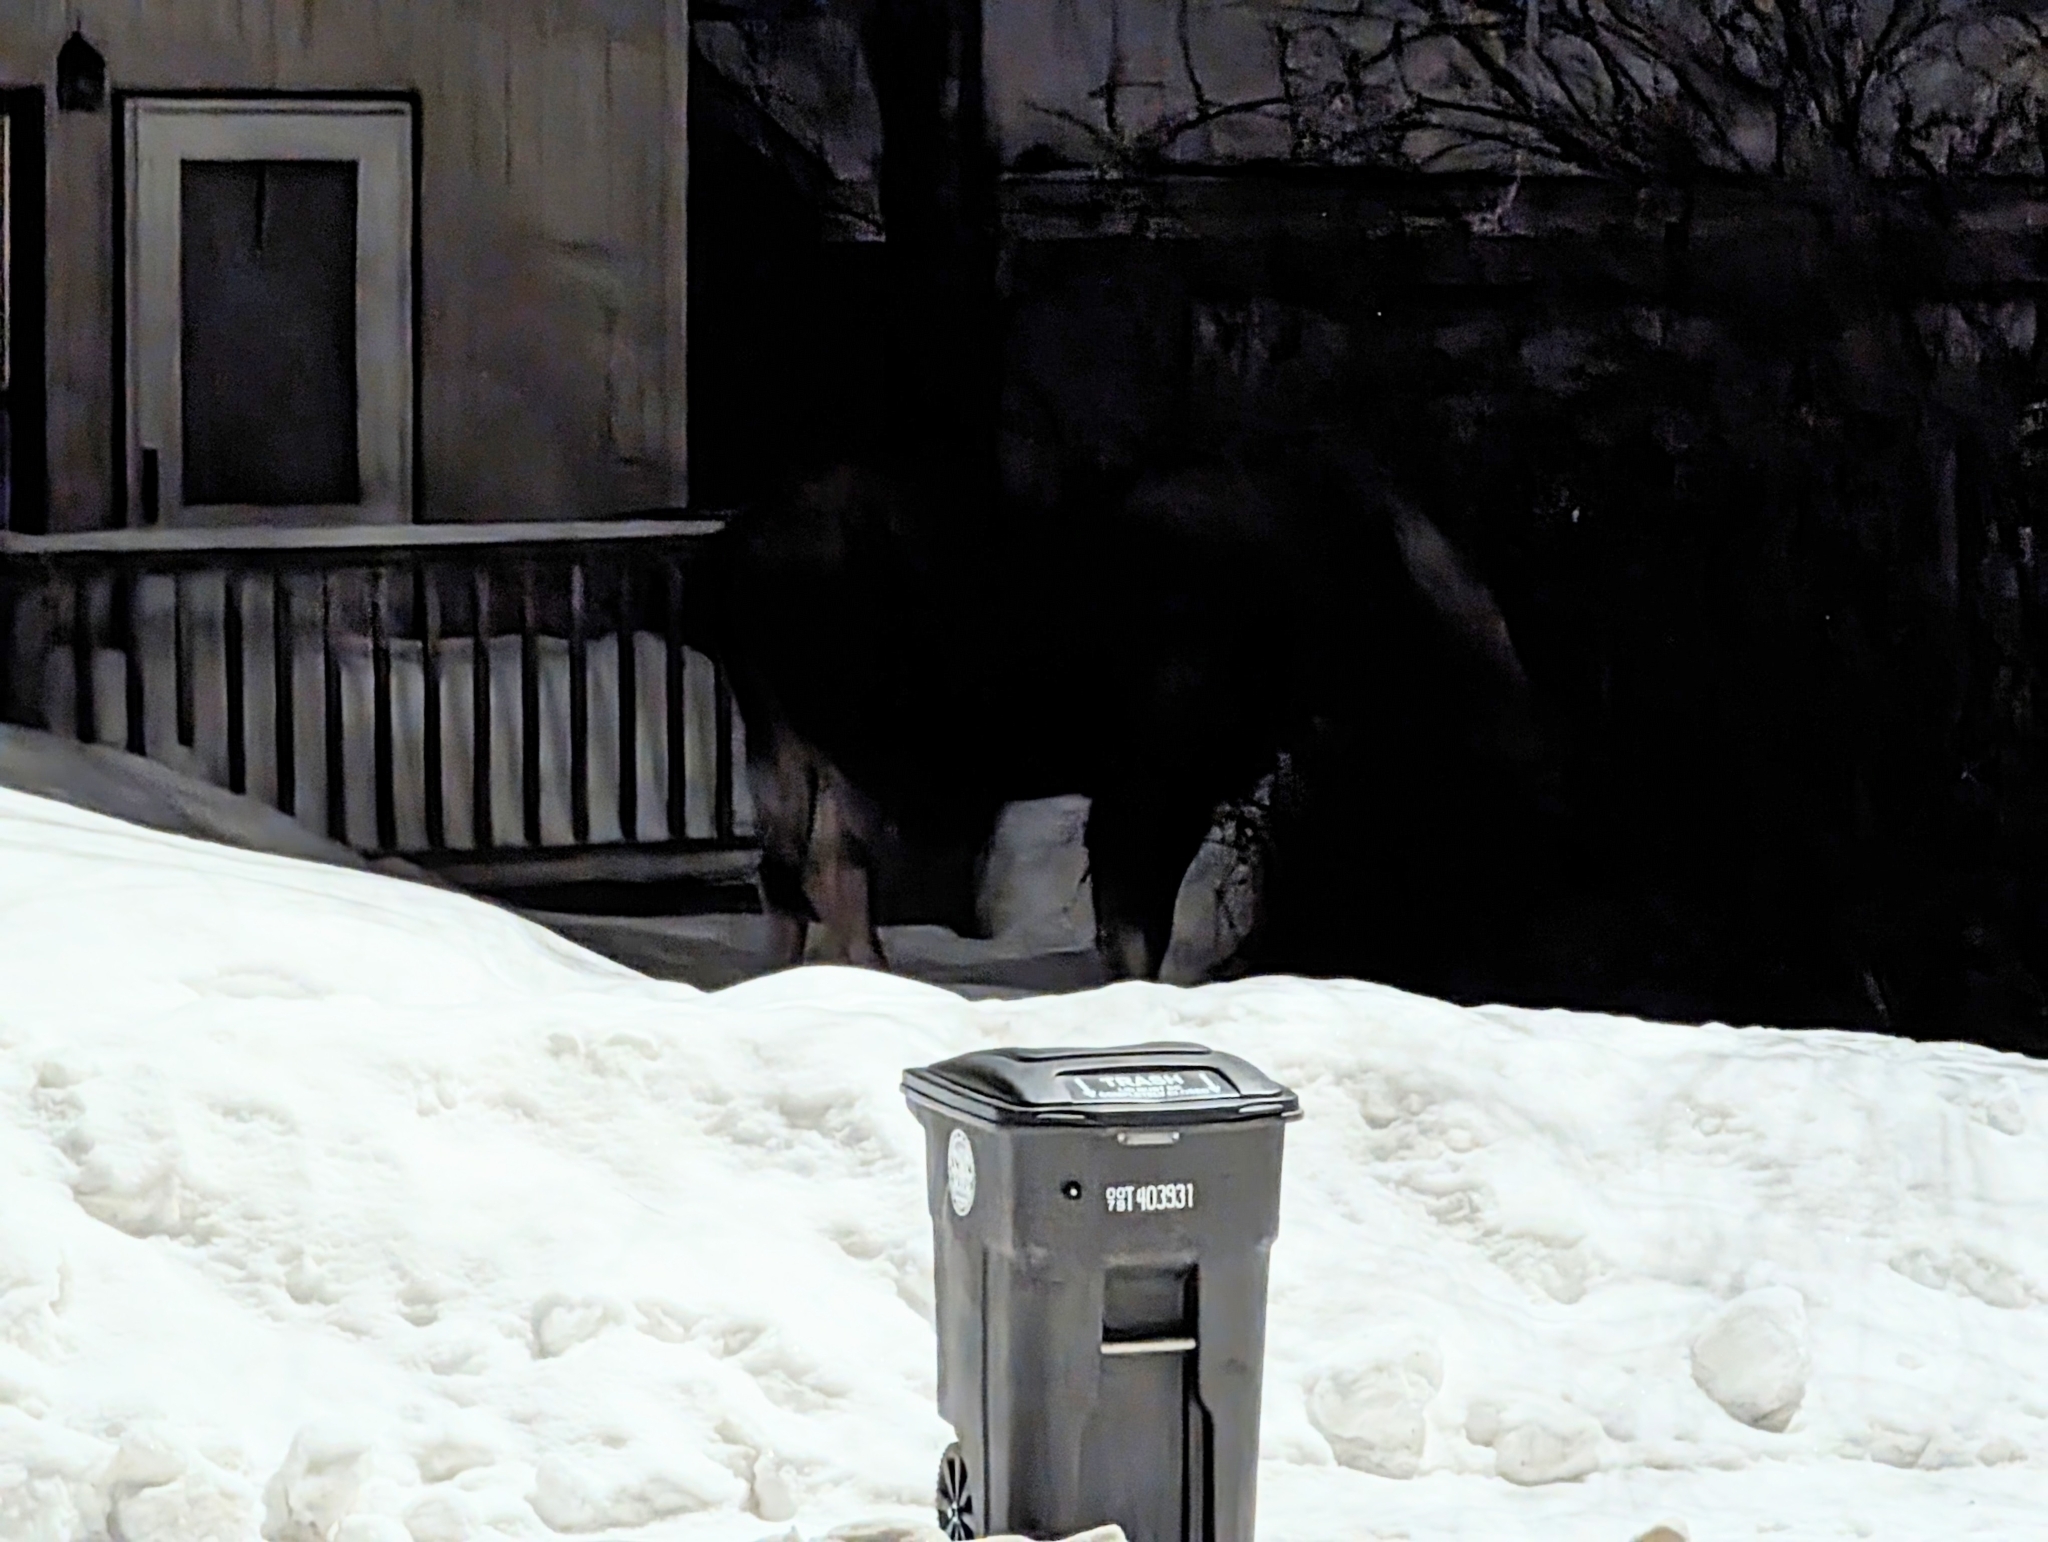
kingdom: Animalia
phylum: Chordata
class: Mammalia
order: Artiodactyla
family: Cervidae
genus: Alces
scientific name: Alces alces
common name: Moose
